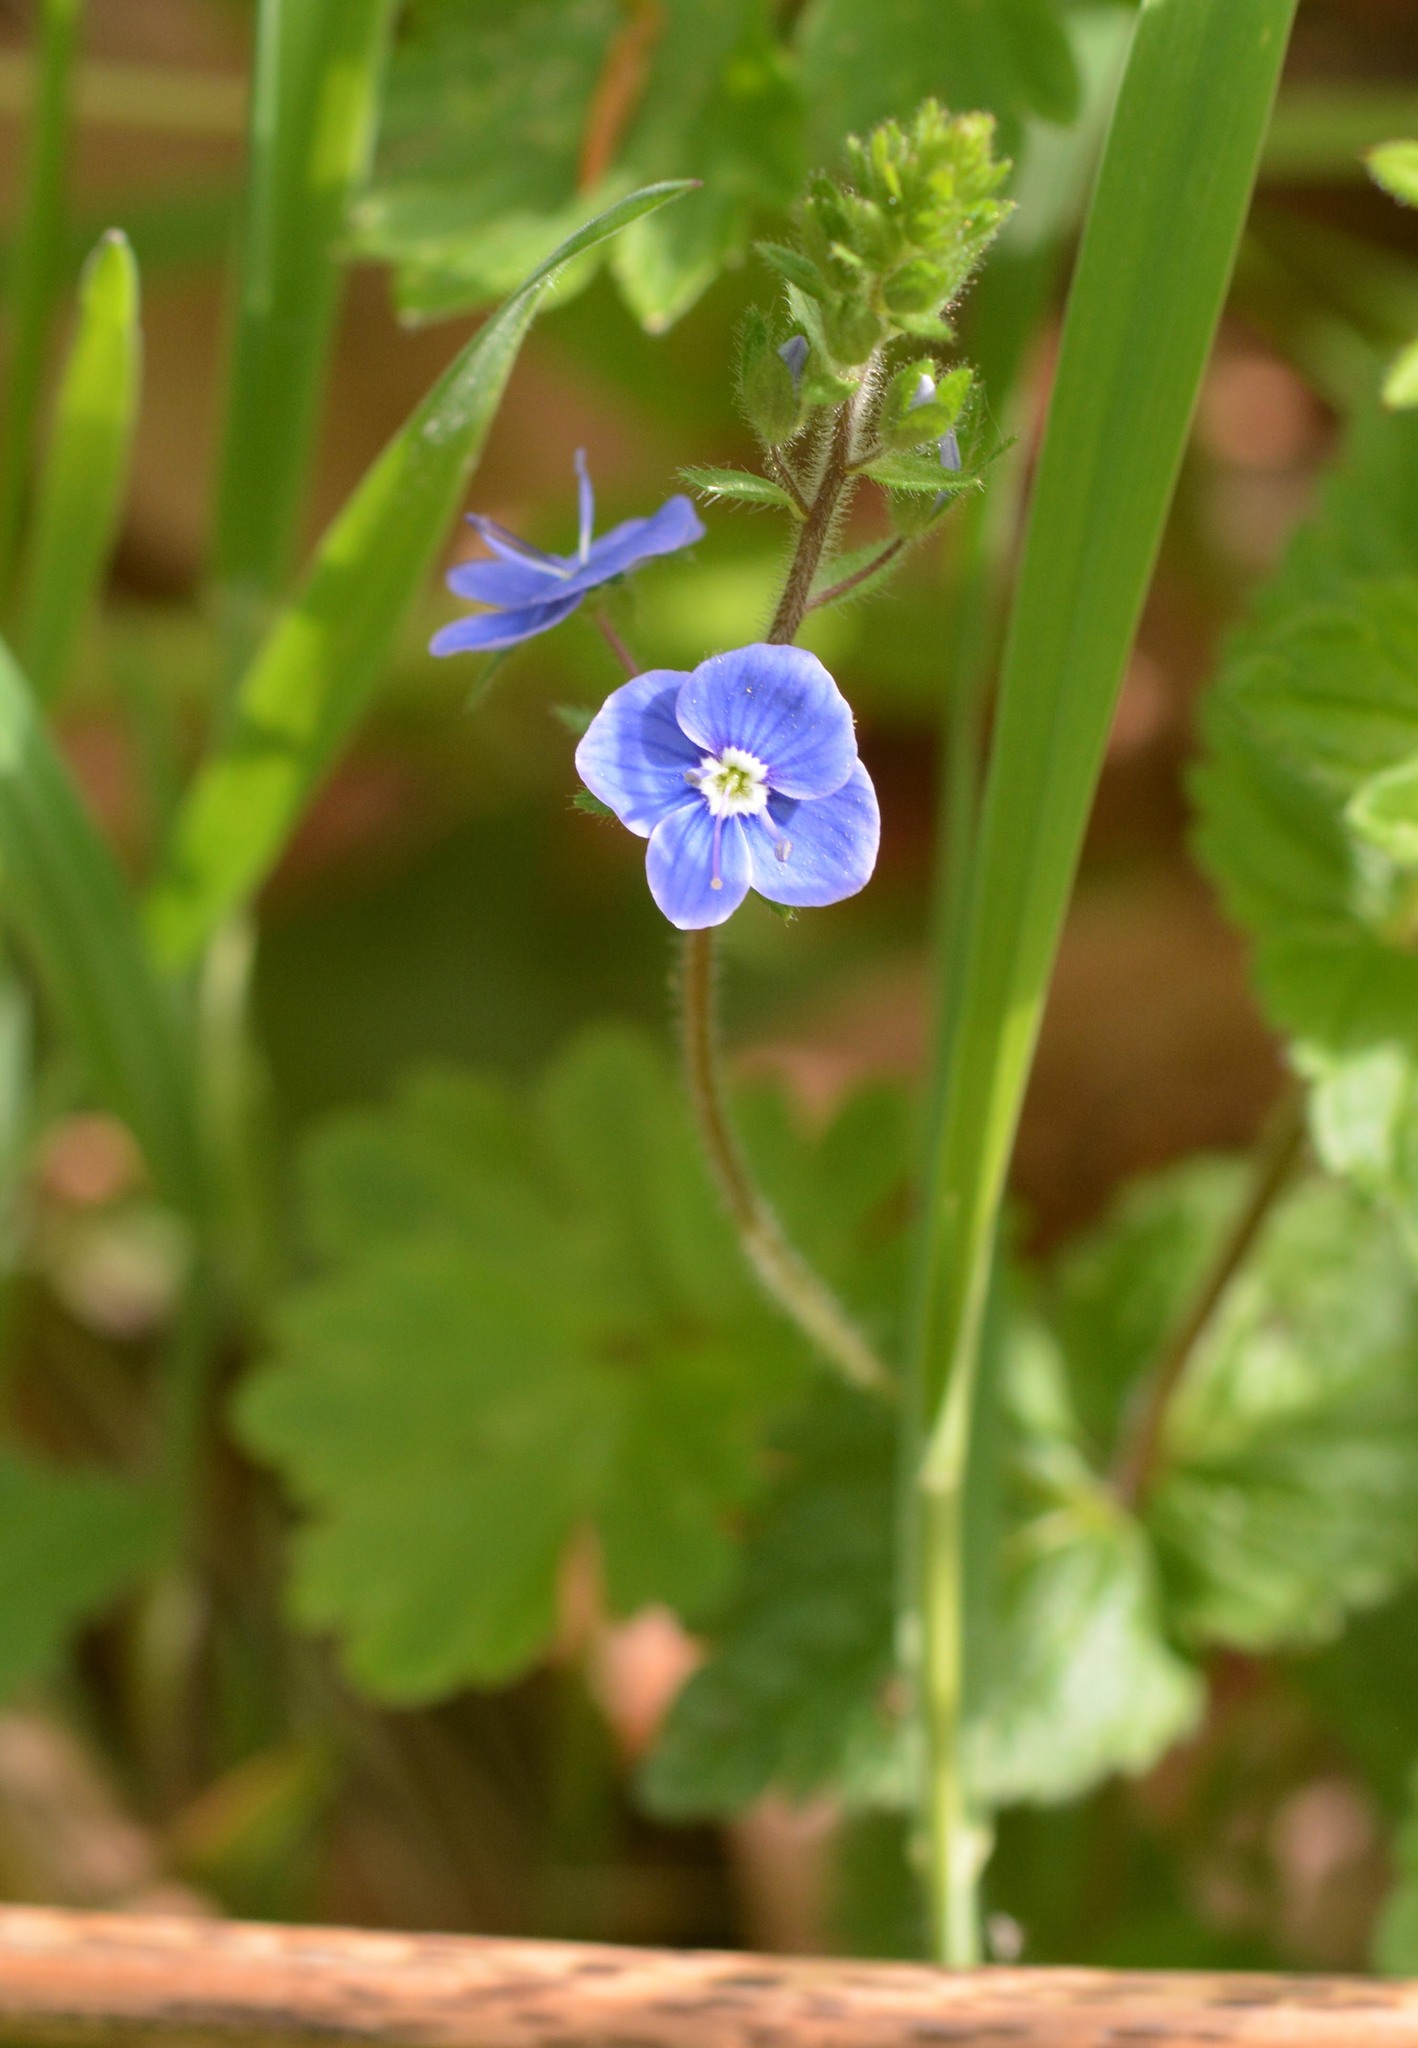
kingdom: Plantae
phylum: Tracheophyta
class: Magnoliopsida
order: Lamiales
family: Plantaginaceae
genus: Veronica
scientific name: Veronica chamaedrys
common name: Germander speedwell
